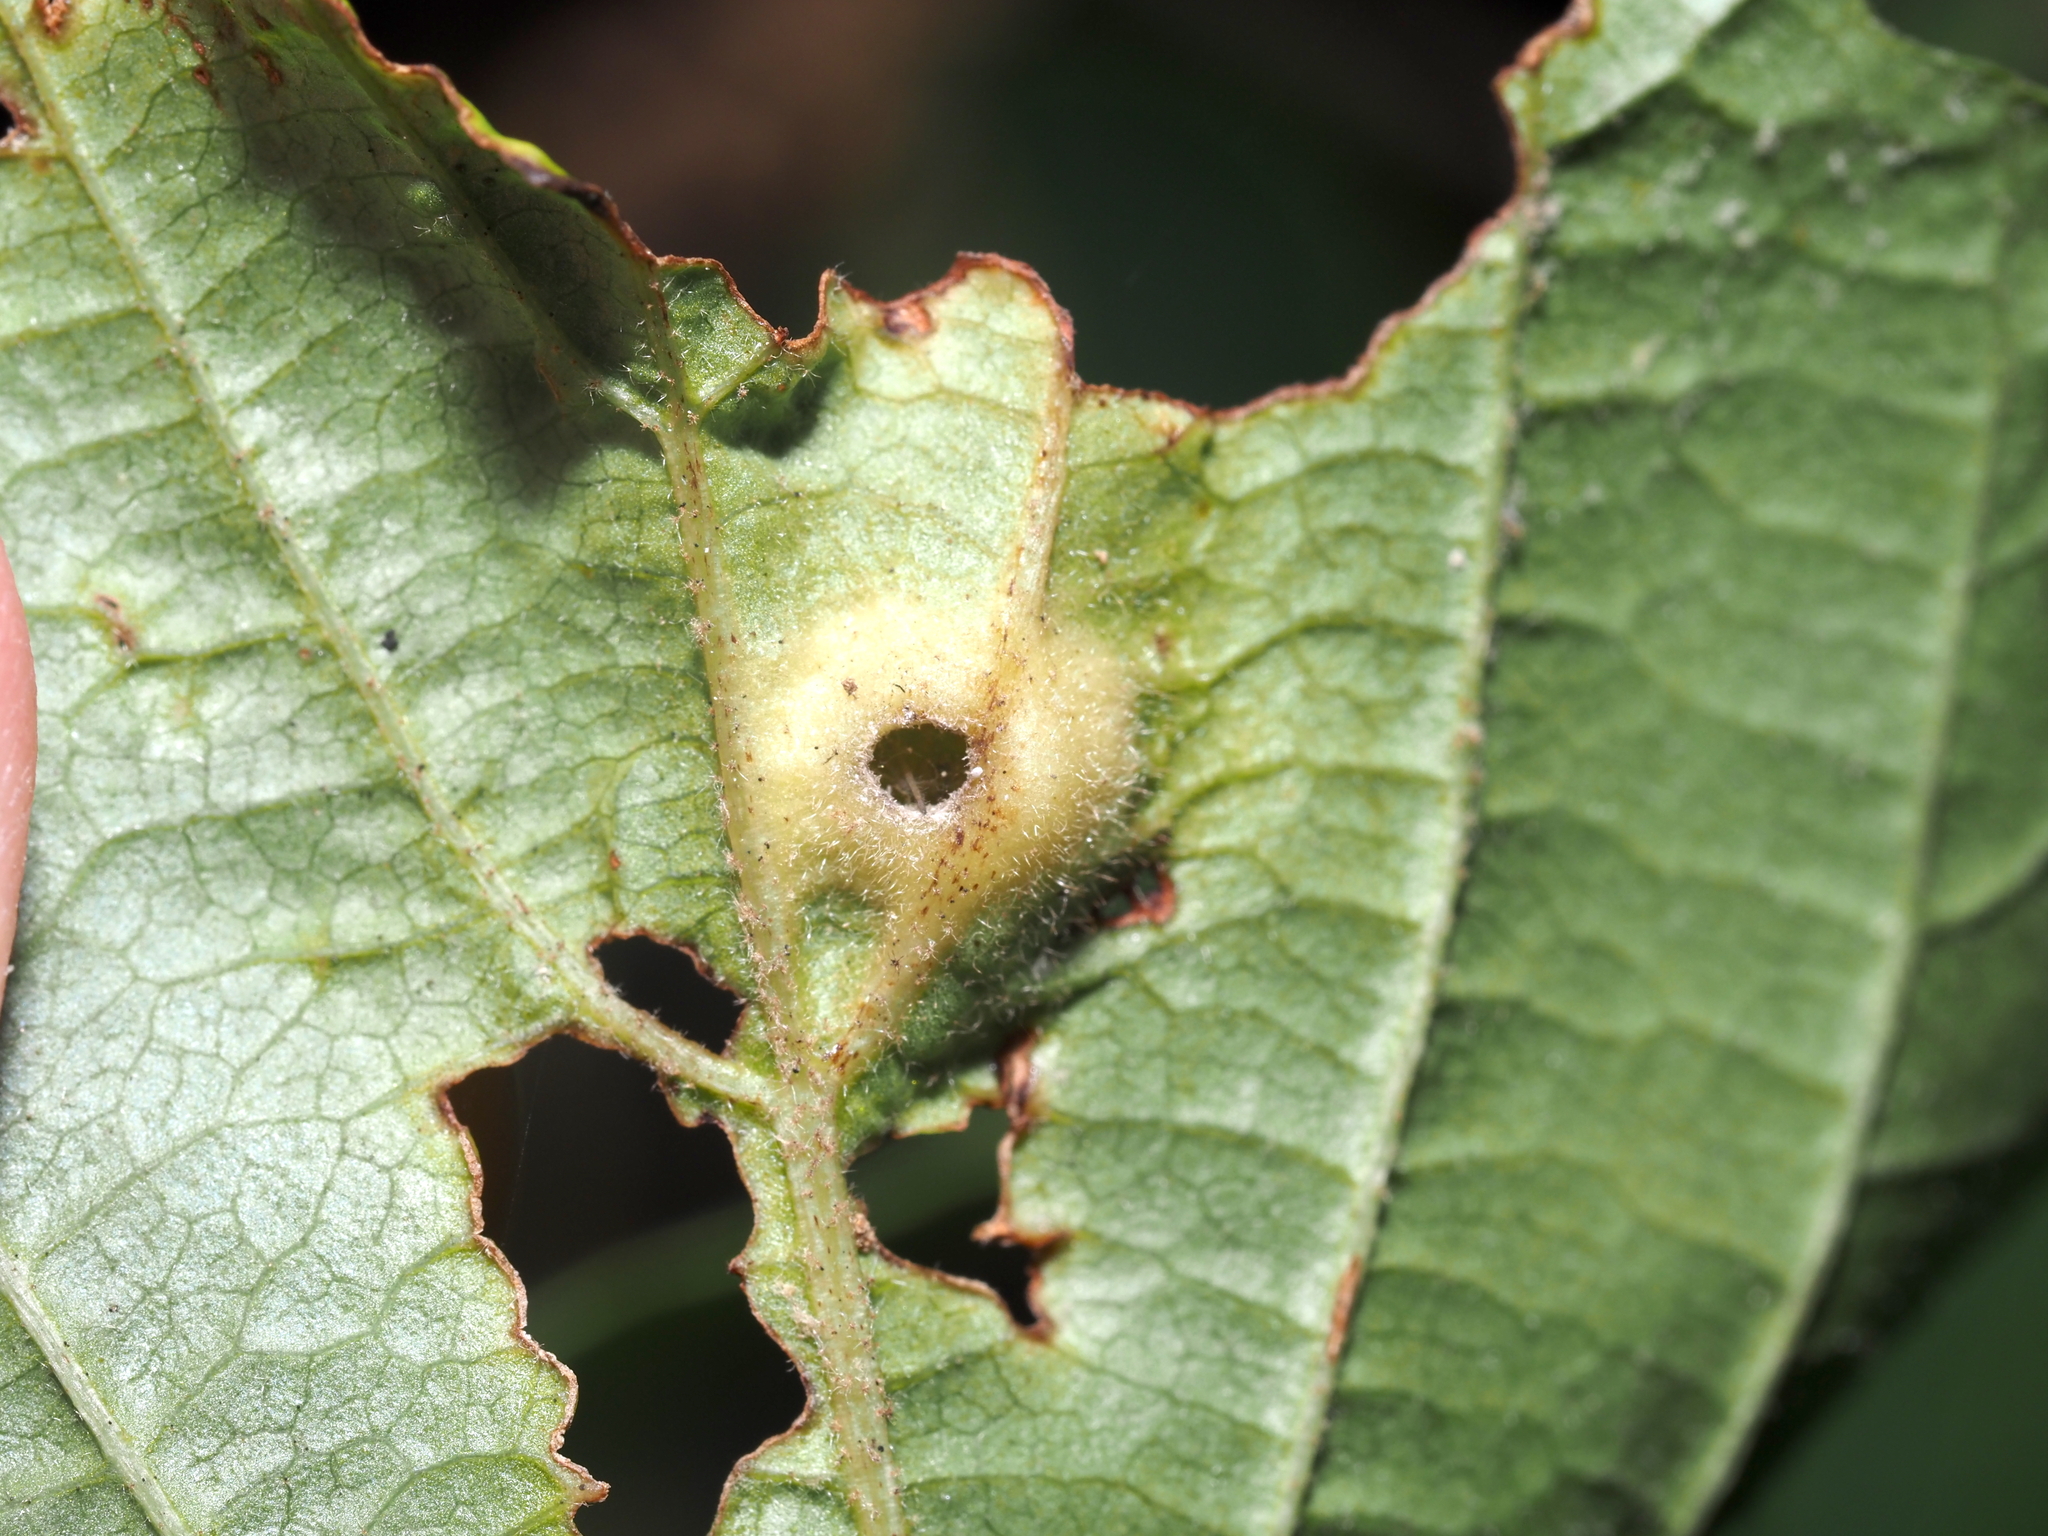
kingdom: Animalia
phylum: Arthropoda
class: Insecta
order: Hemiptera
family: Aphididae
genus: Hormaphis
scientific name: Hormaphis hamamelidis
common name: Witch-hazel cone gall aphid
